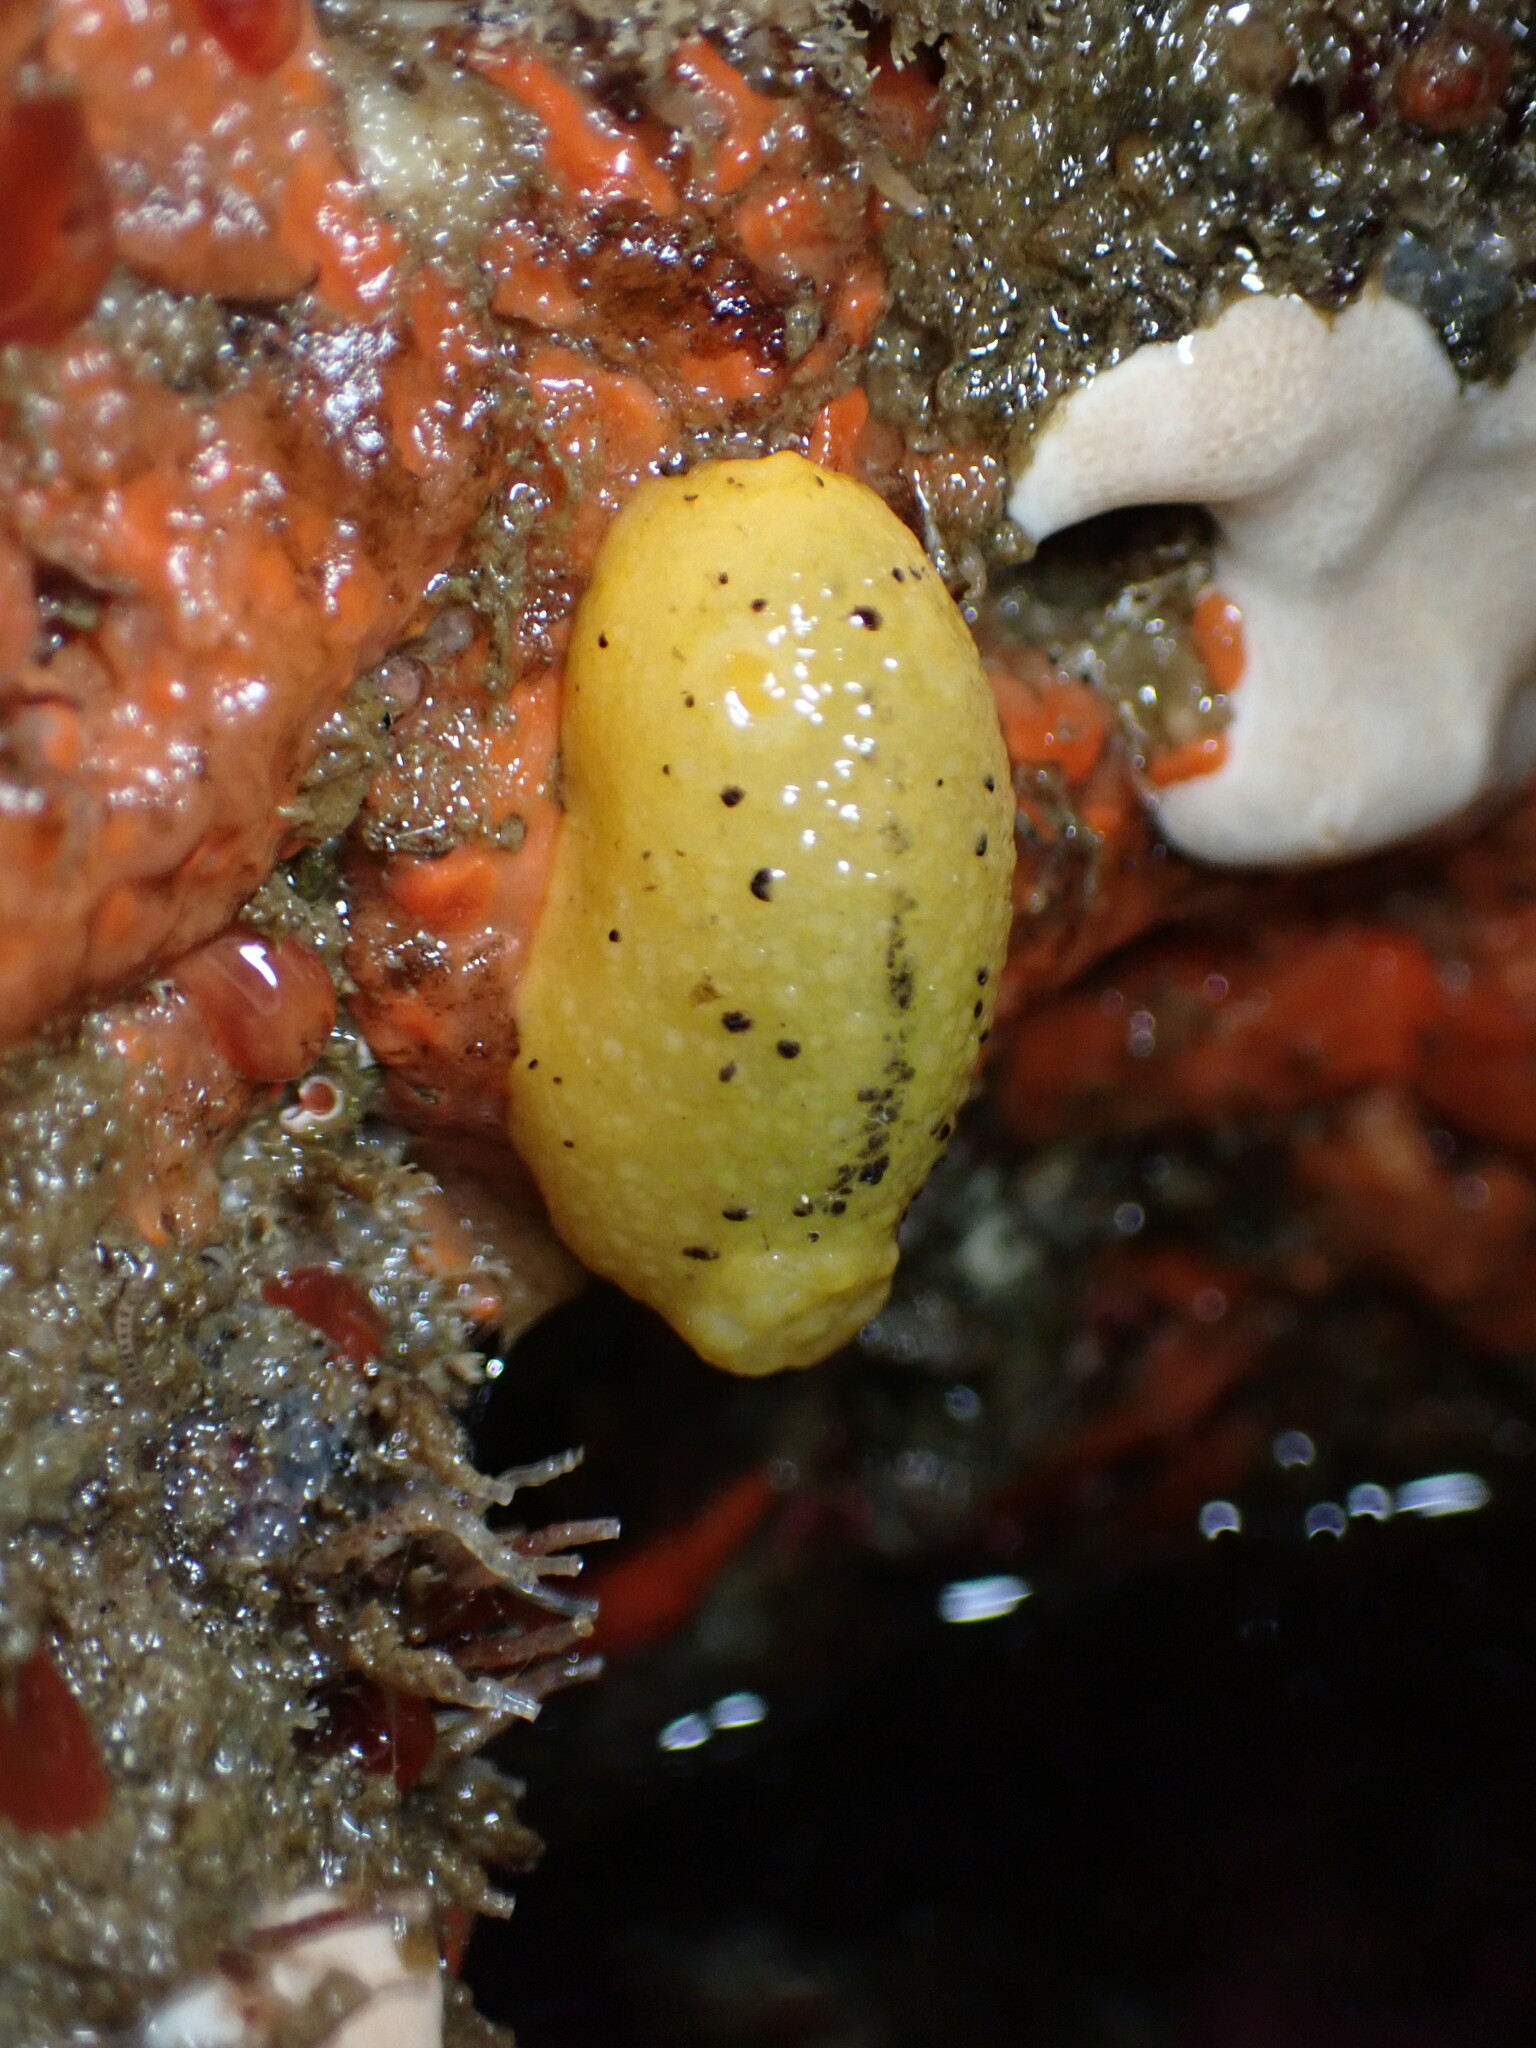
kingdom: Animalia
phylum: Mollusca
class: Gastropoda
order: Nudibranchia
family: Dorididae
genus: Doris
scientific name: Doris montereyensis
